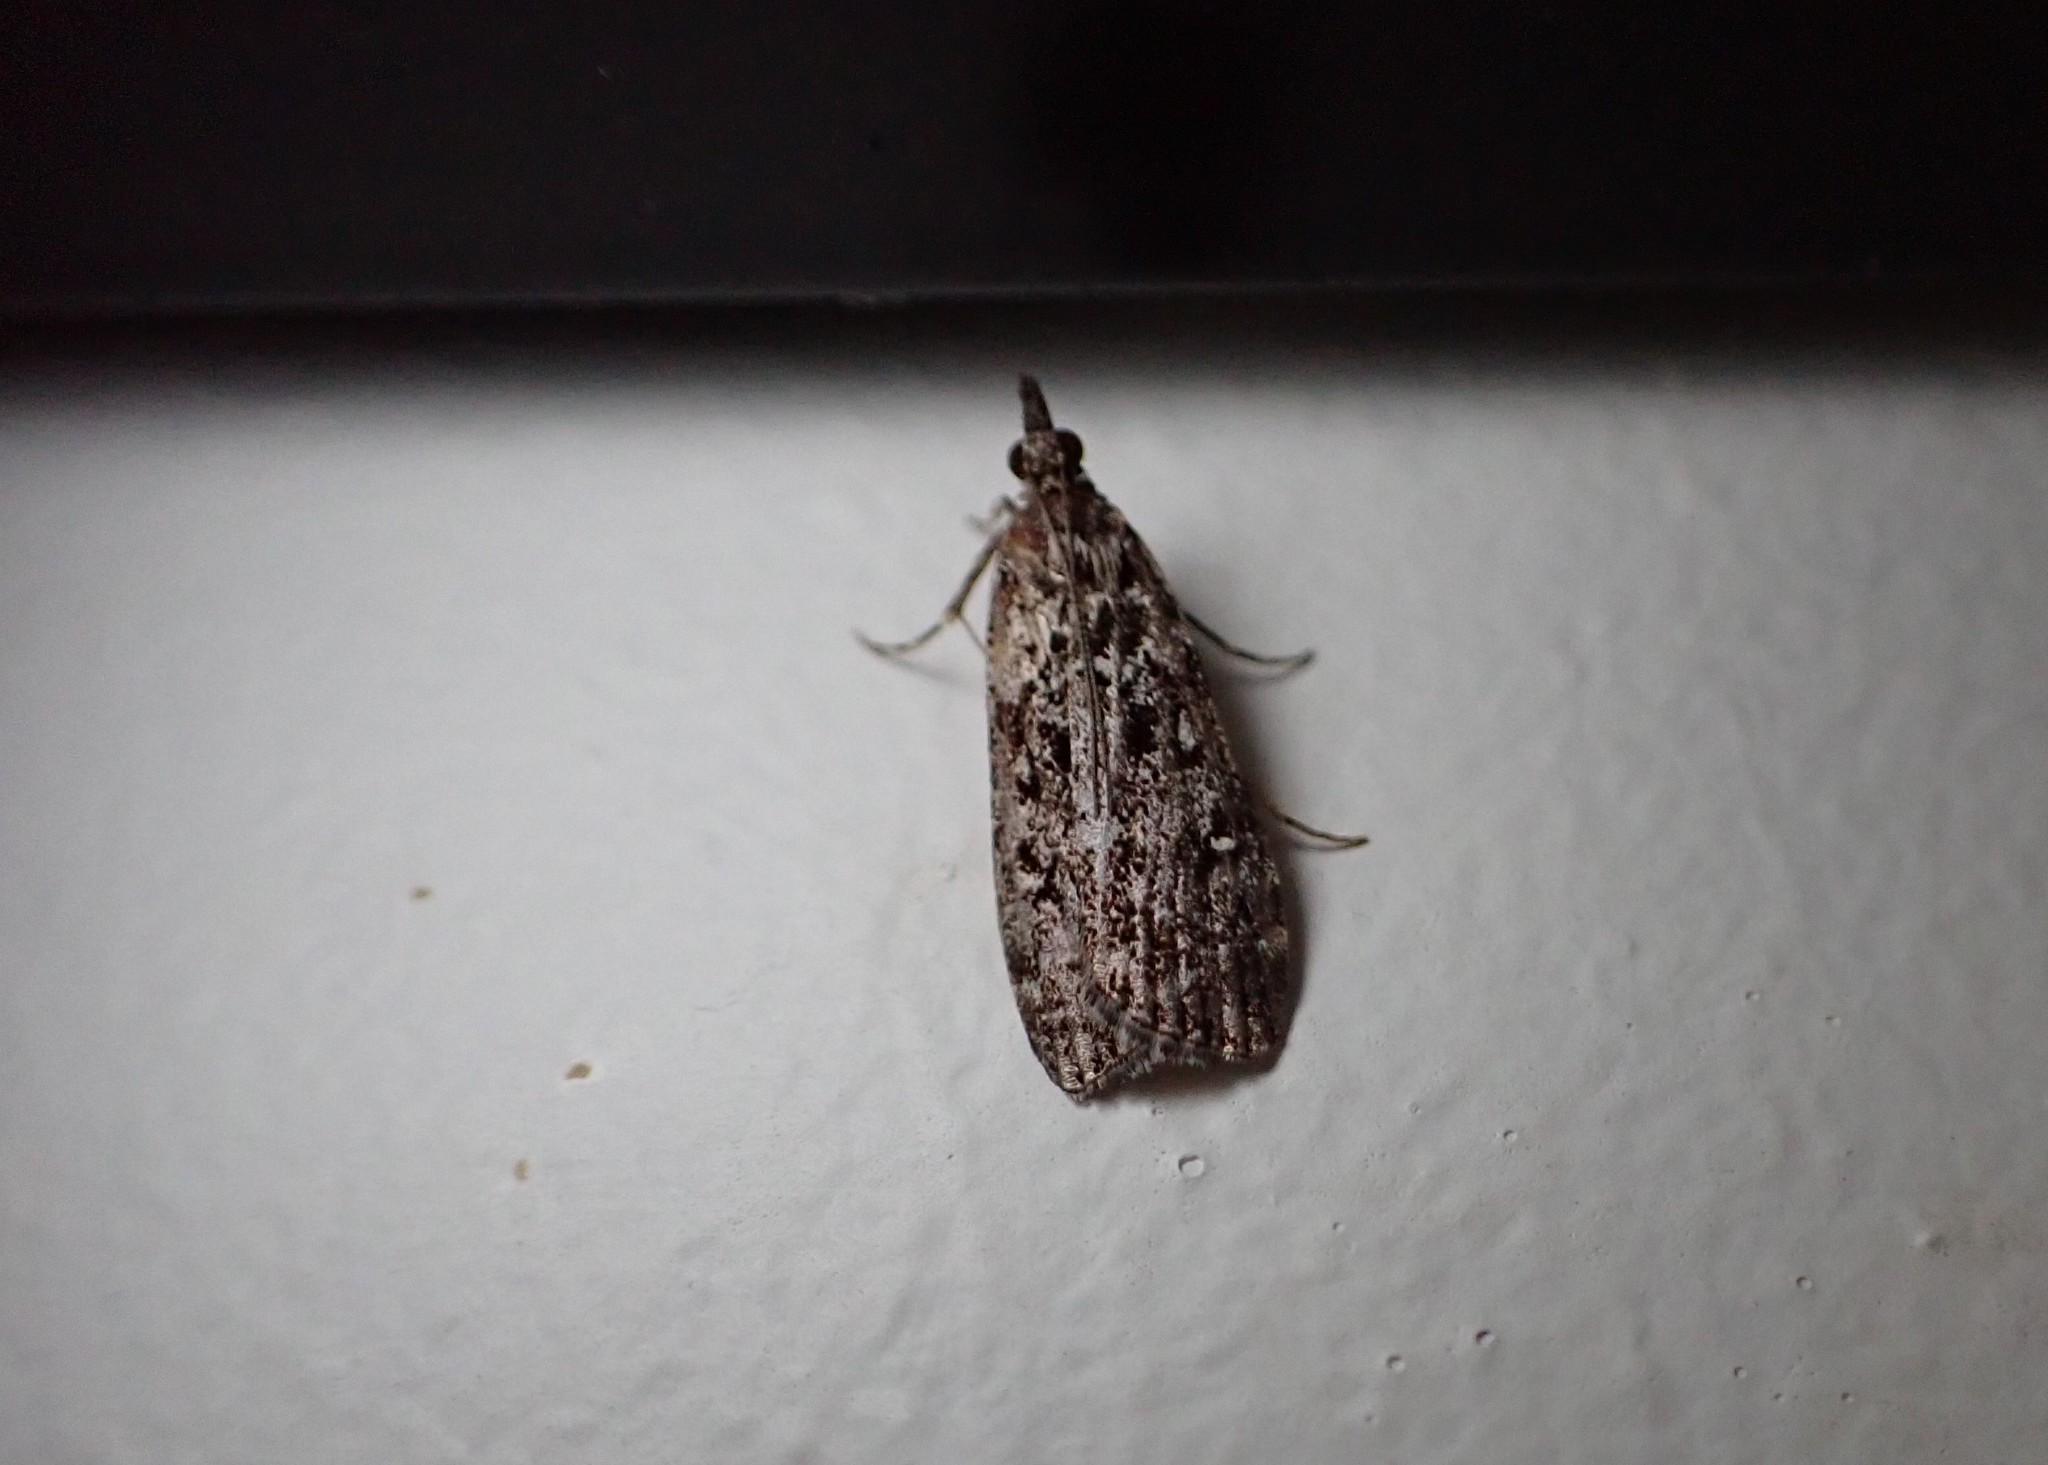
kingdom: Animalia
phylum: Arthropoda
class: Insecta
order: Lepidoptera
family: Crambidae
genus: Eudonia
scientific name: Eudonia philerga
